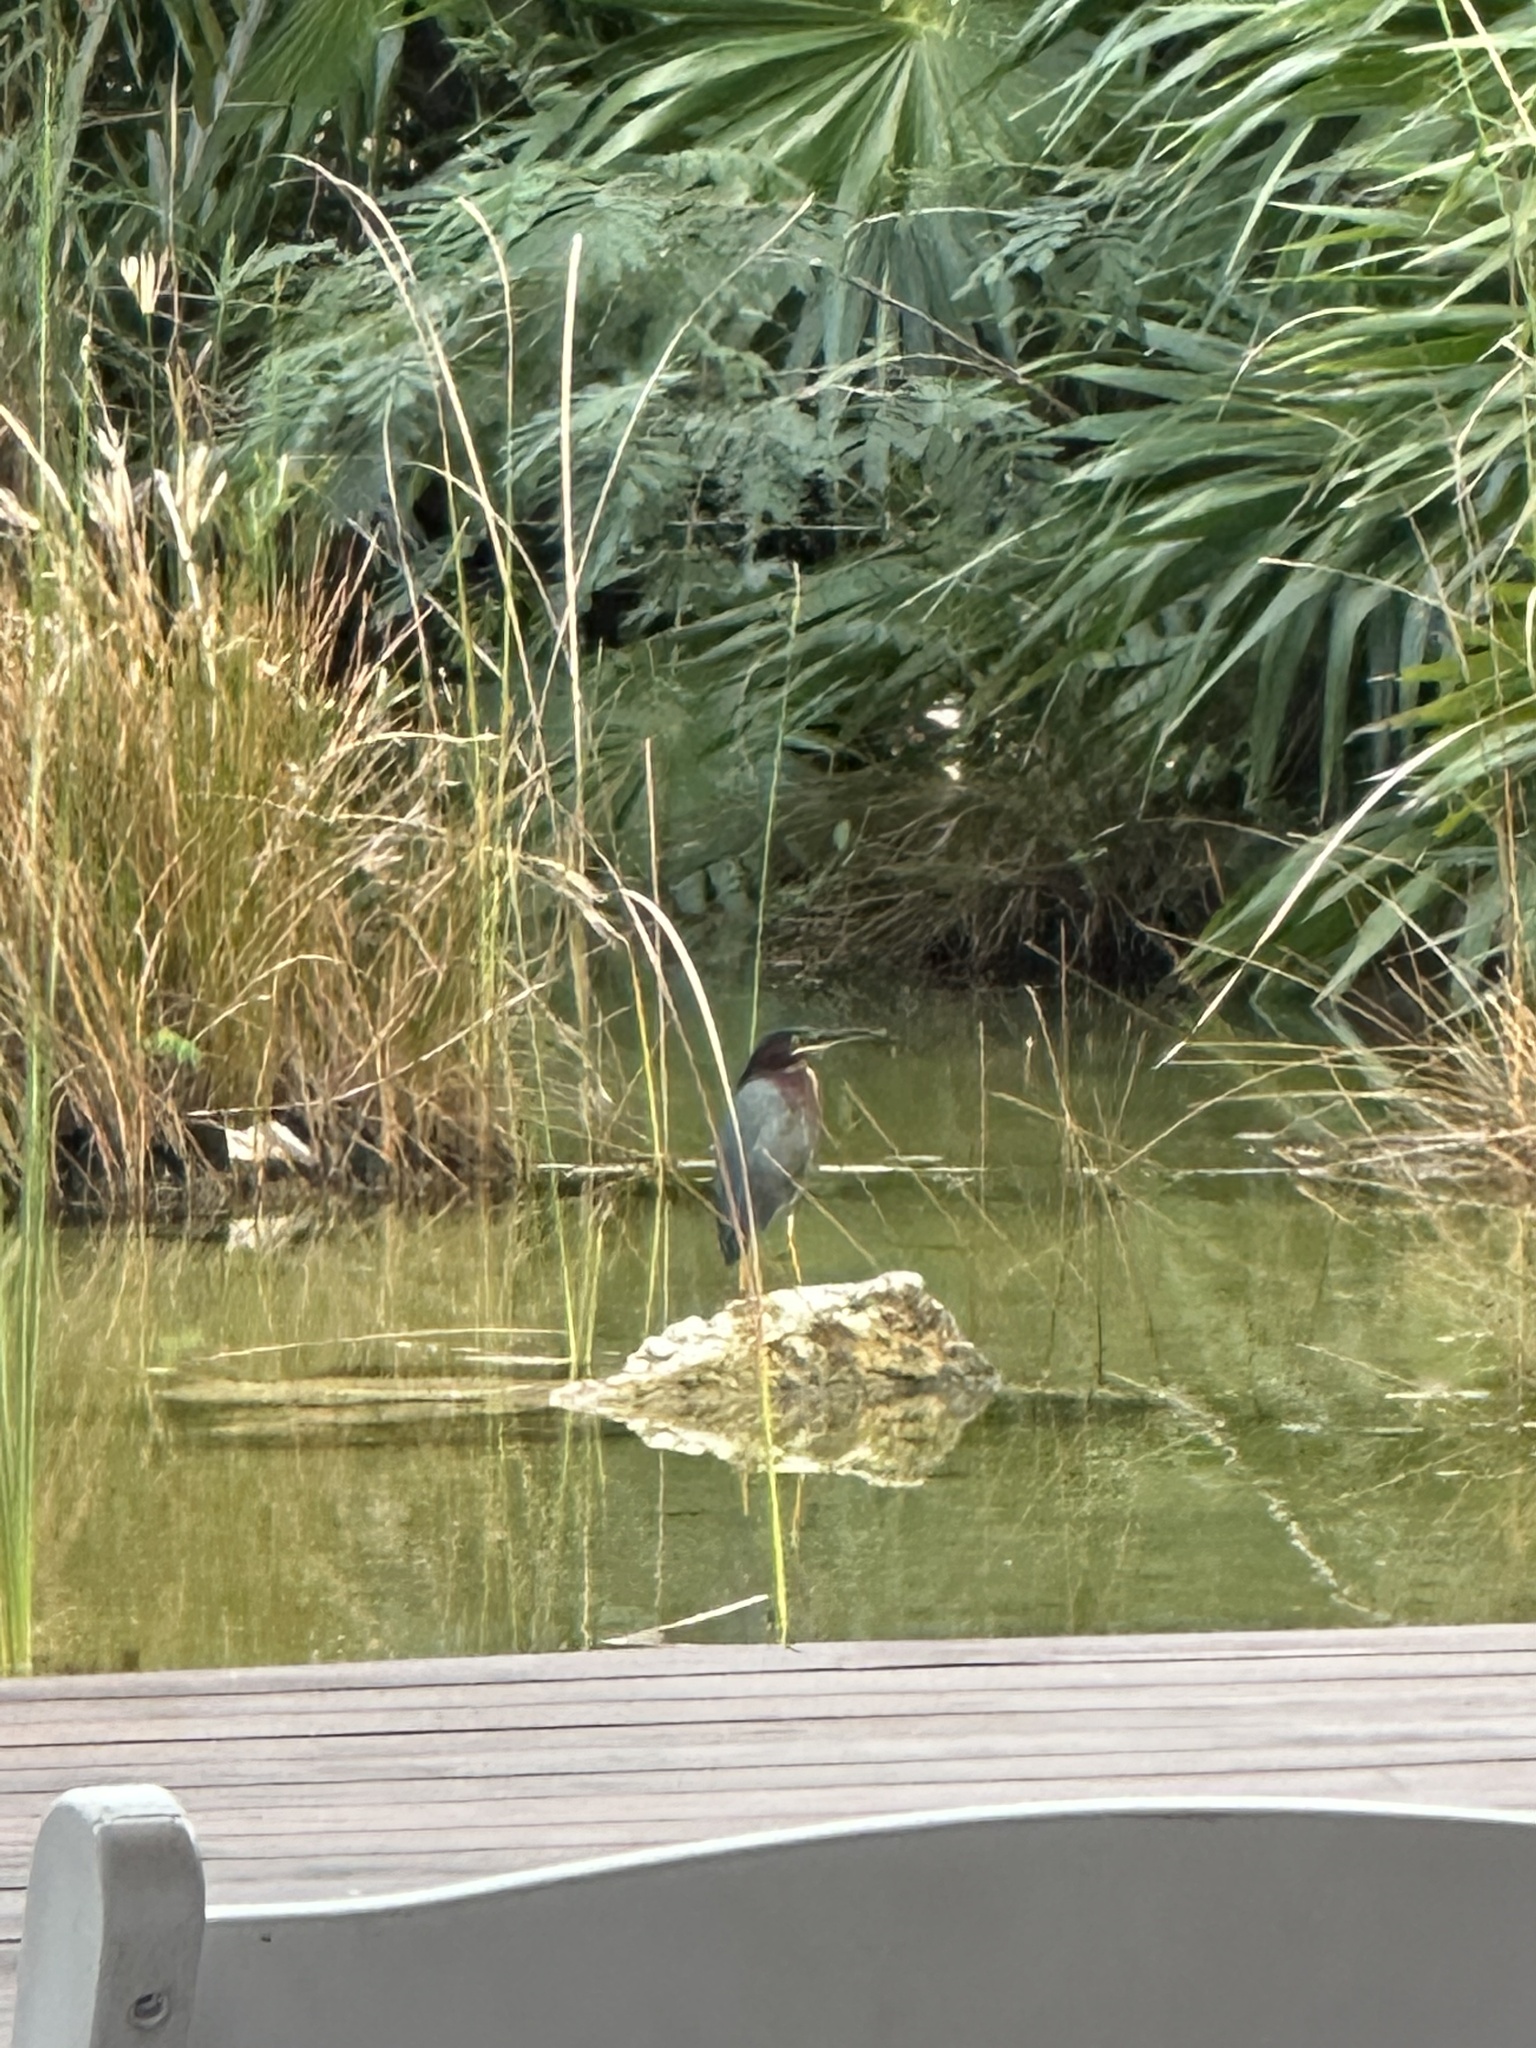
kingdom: Animalia
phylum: Chordata
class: Aves
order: Pelecaniformes
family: Ardeidae
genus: Butorides
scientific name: Butorides virescens
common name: Green heron
